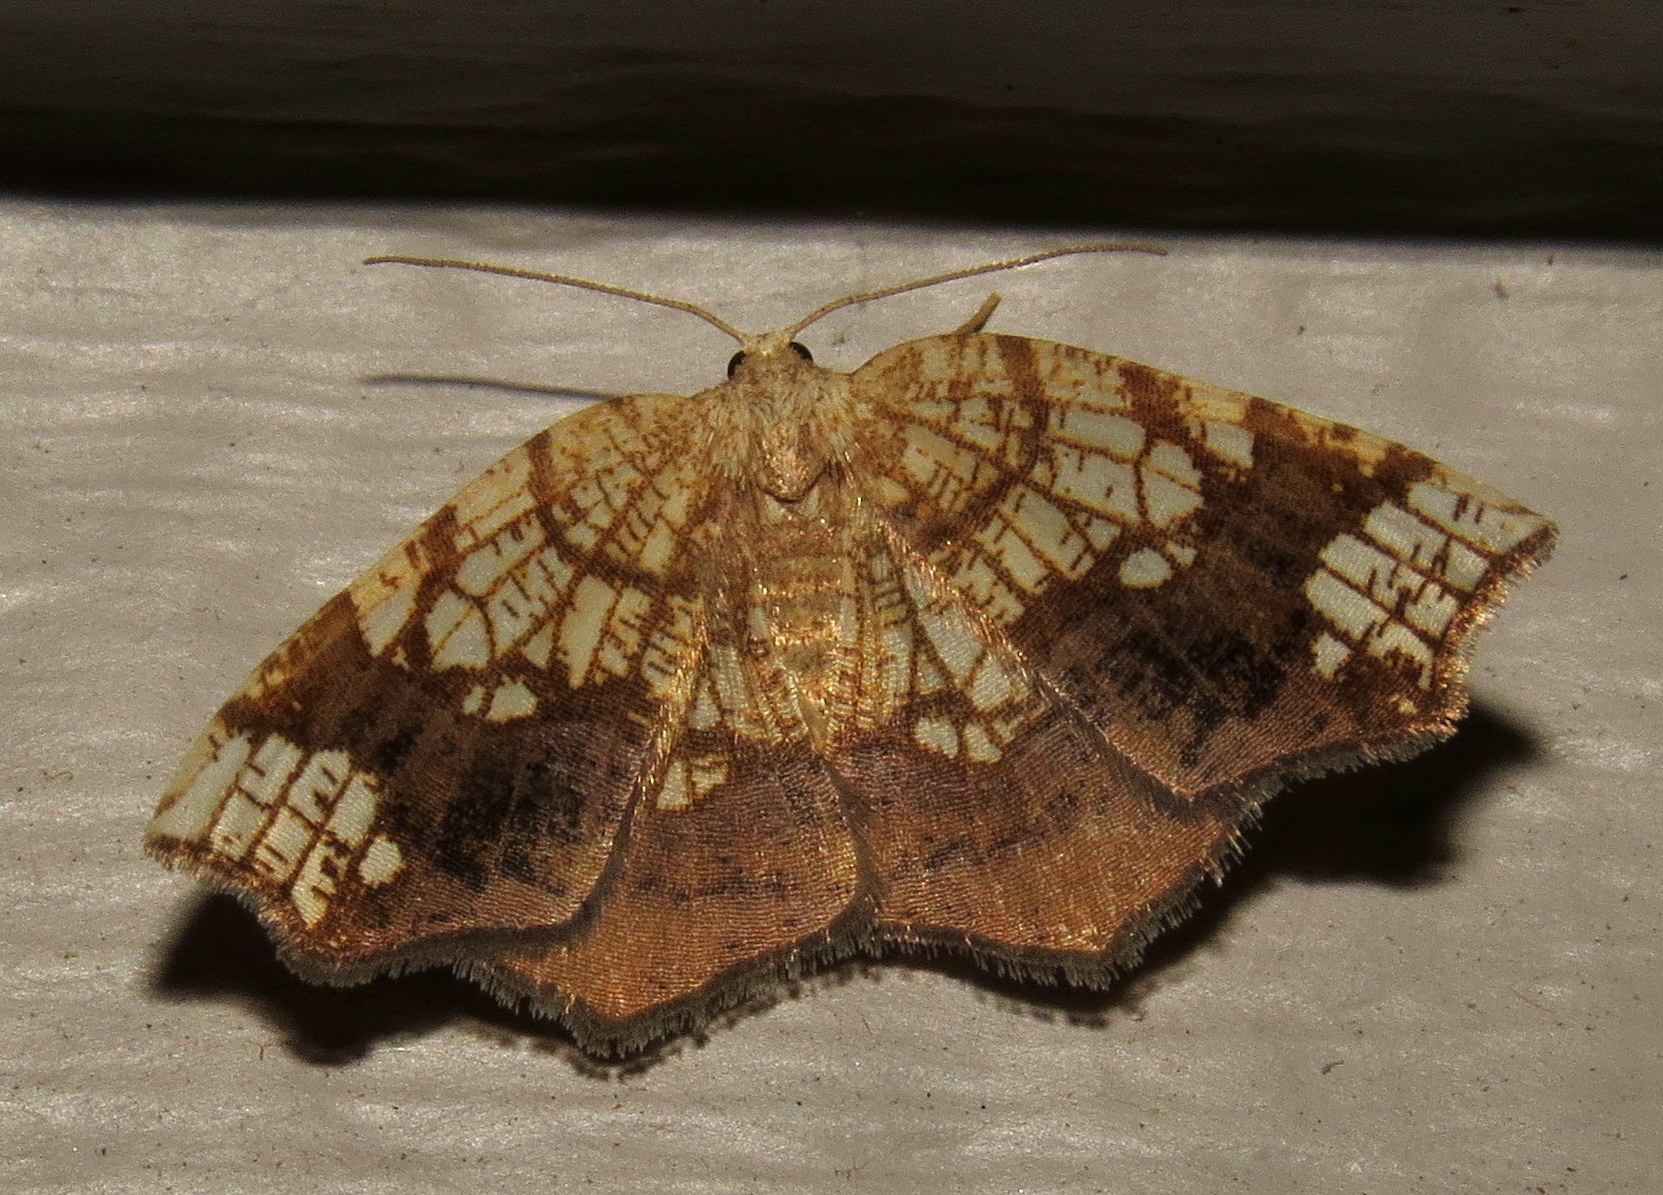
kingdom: Animalia
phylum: Arthropoda
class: Insecta
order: Lepidoptera
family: Geometridae
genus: Nematocampa
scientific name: Nematocampa resistaria
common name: Horned spanworm moth
